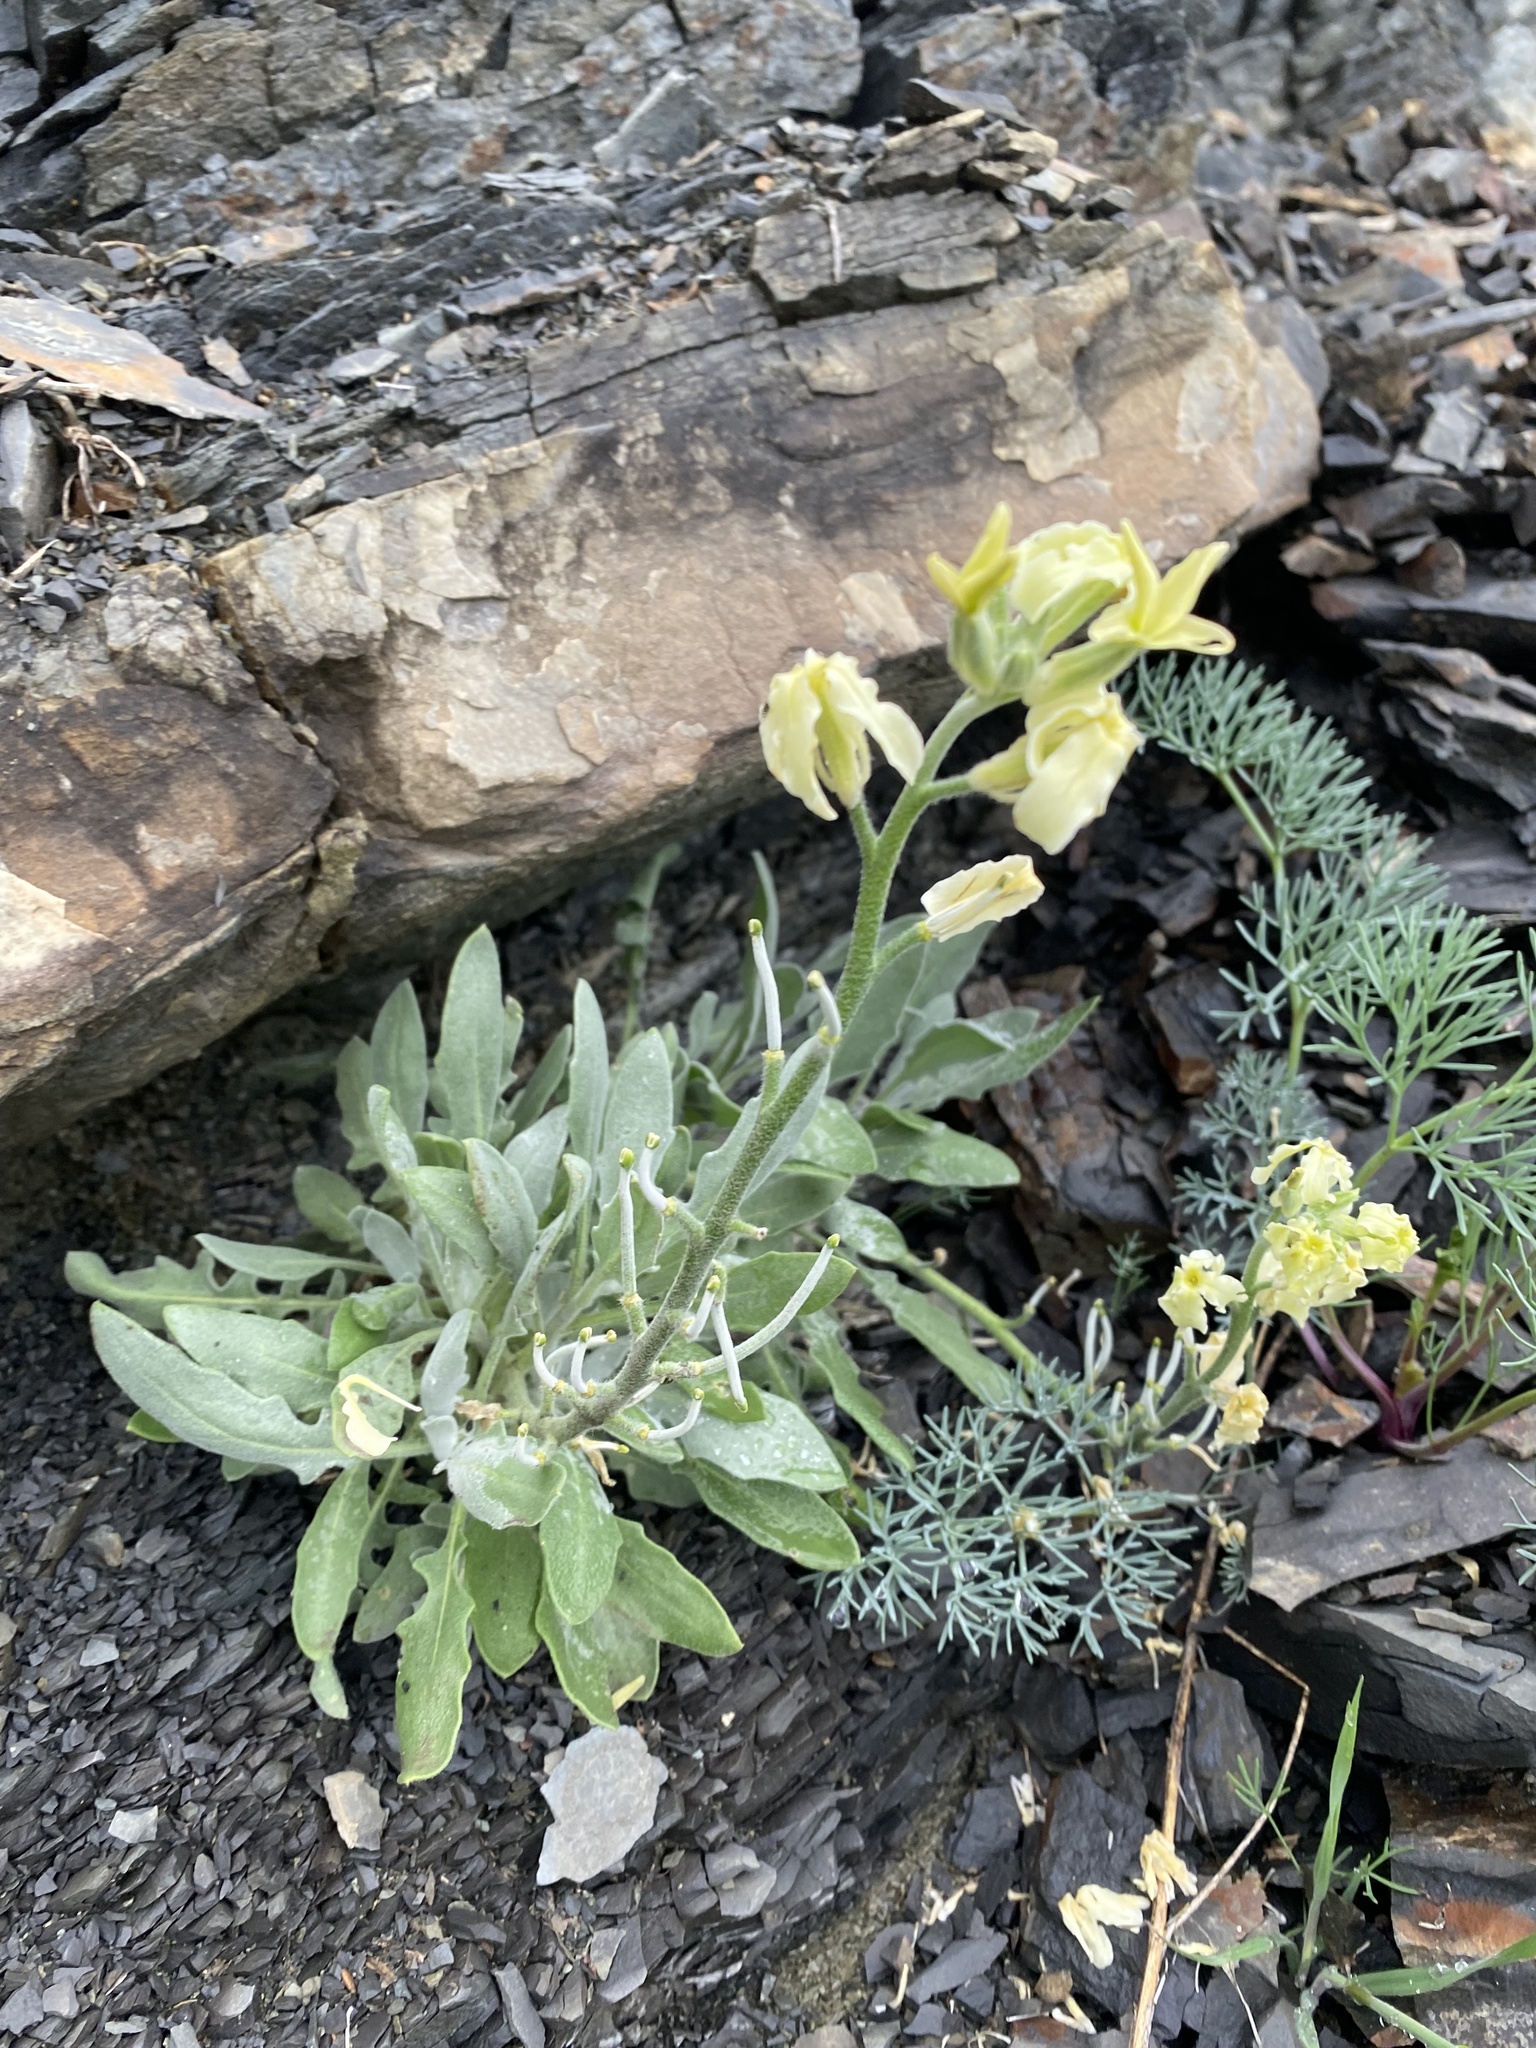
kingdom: Plantae
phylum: Tracheophyta
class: Magnoliopsida
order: Brassicales
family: Brassicaceae
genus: Matthiola
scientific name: Matthiola odoratissima
